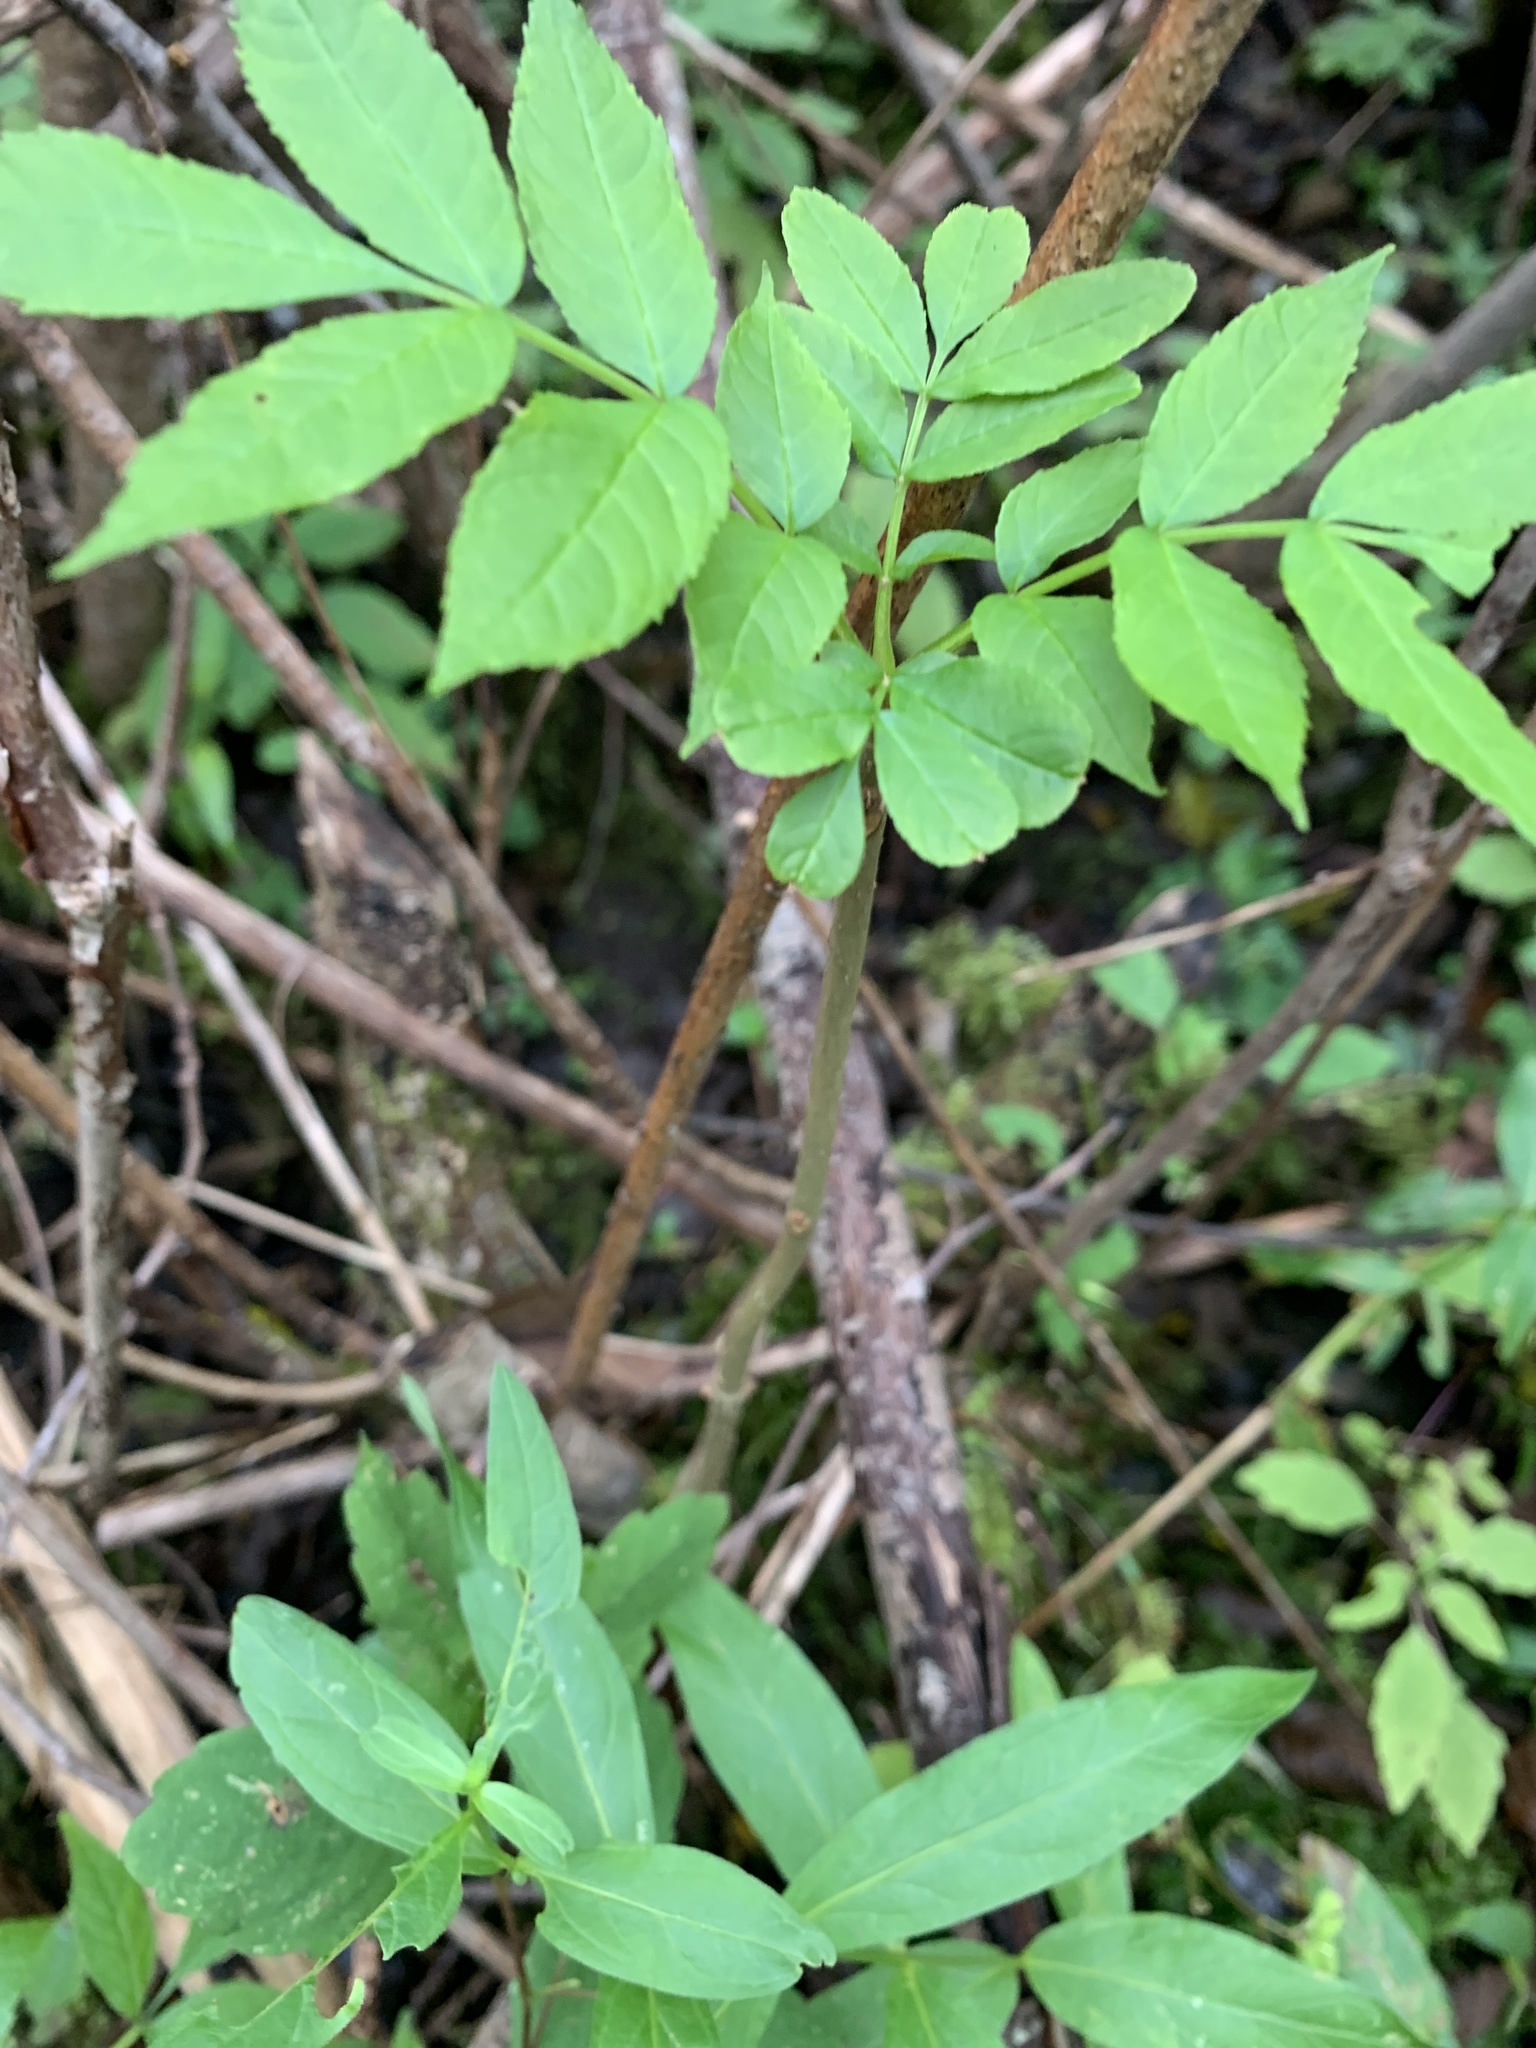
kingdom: Plantae
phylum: Tracheophyta
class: Magnoliopsida
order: Lamiales
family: Oleaceae
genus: Fraxinus
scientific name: Fraxinus nigra
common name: Black ash
